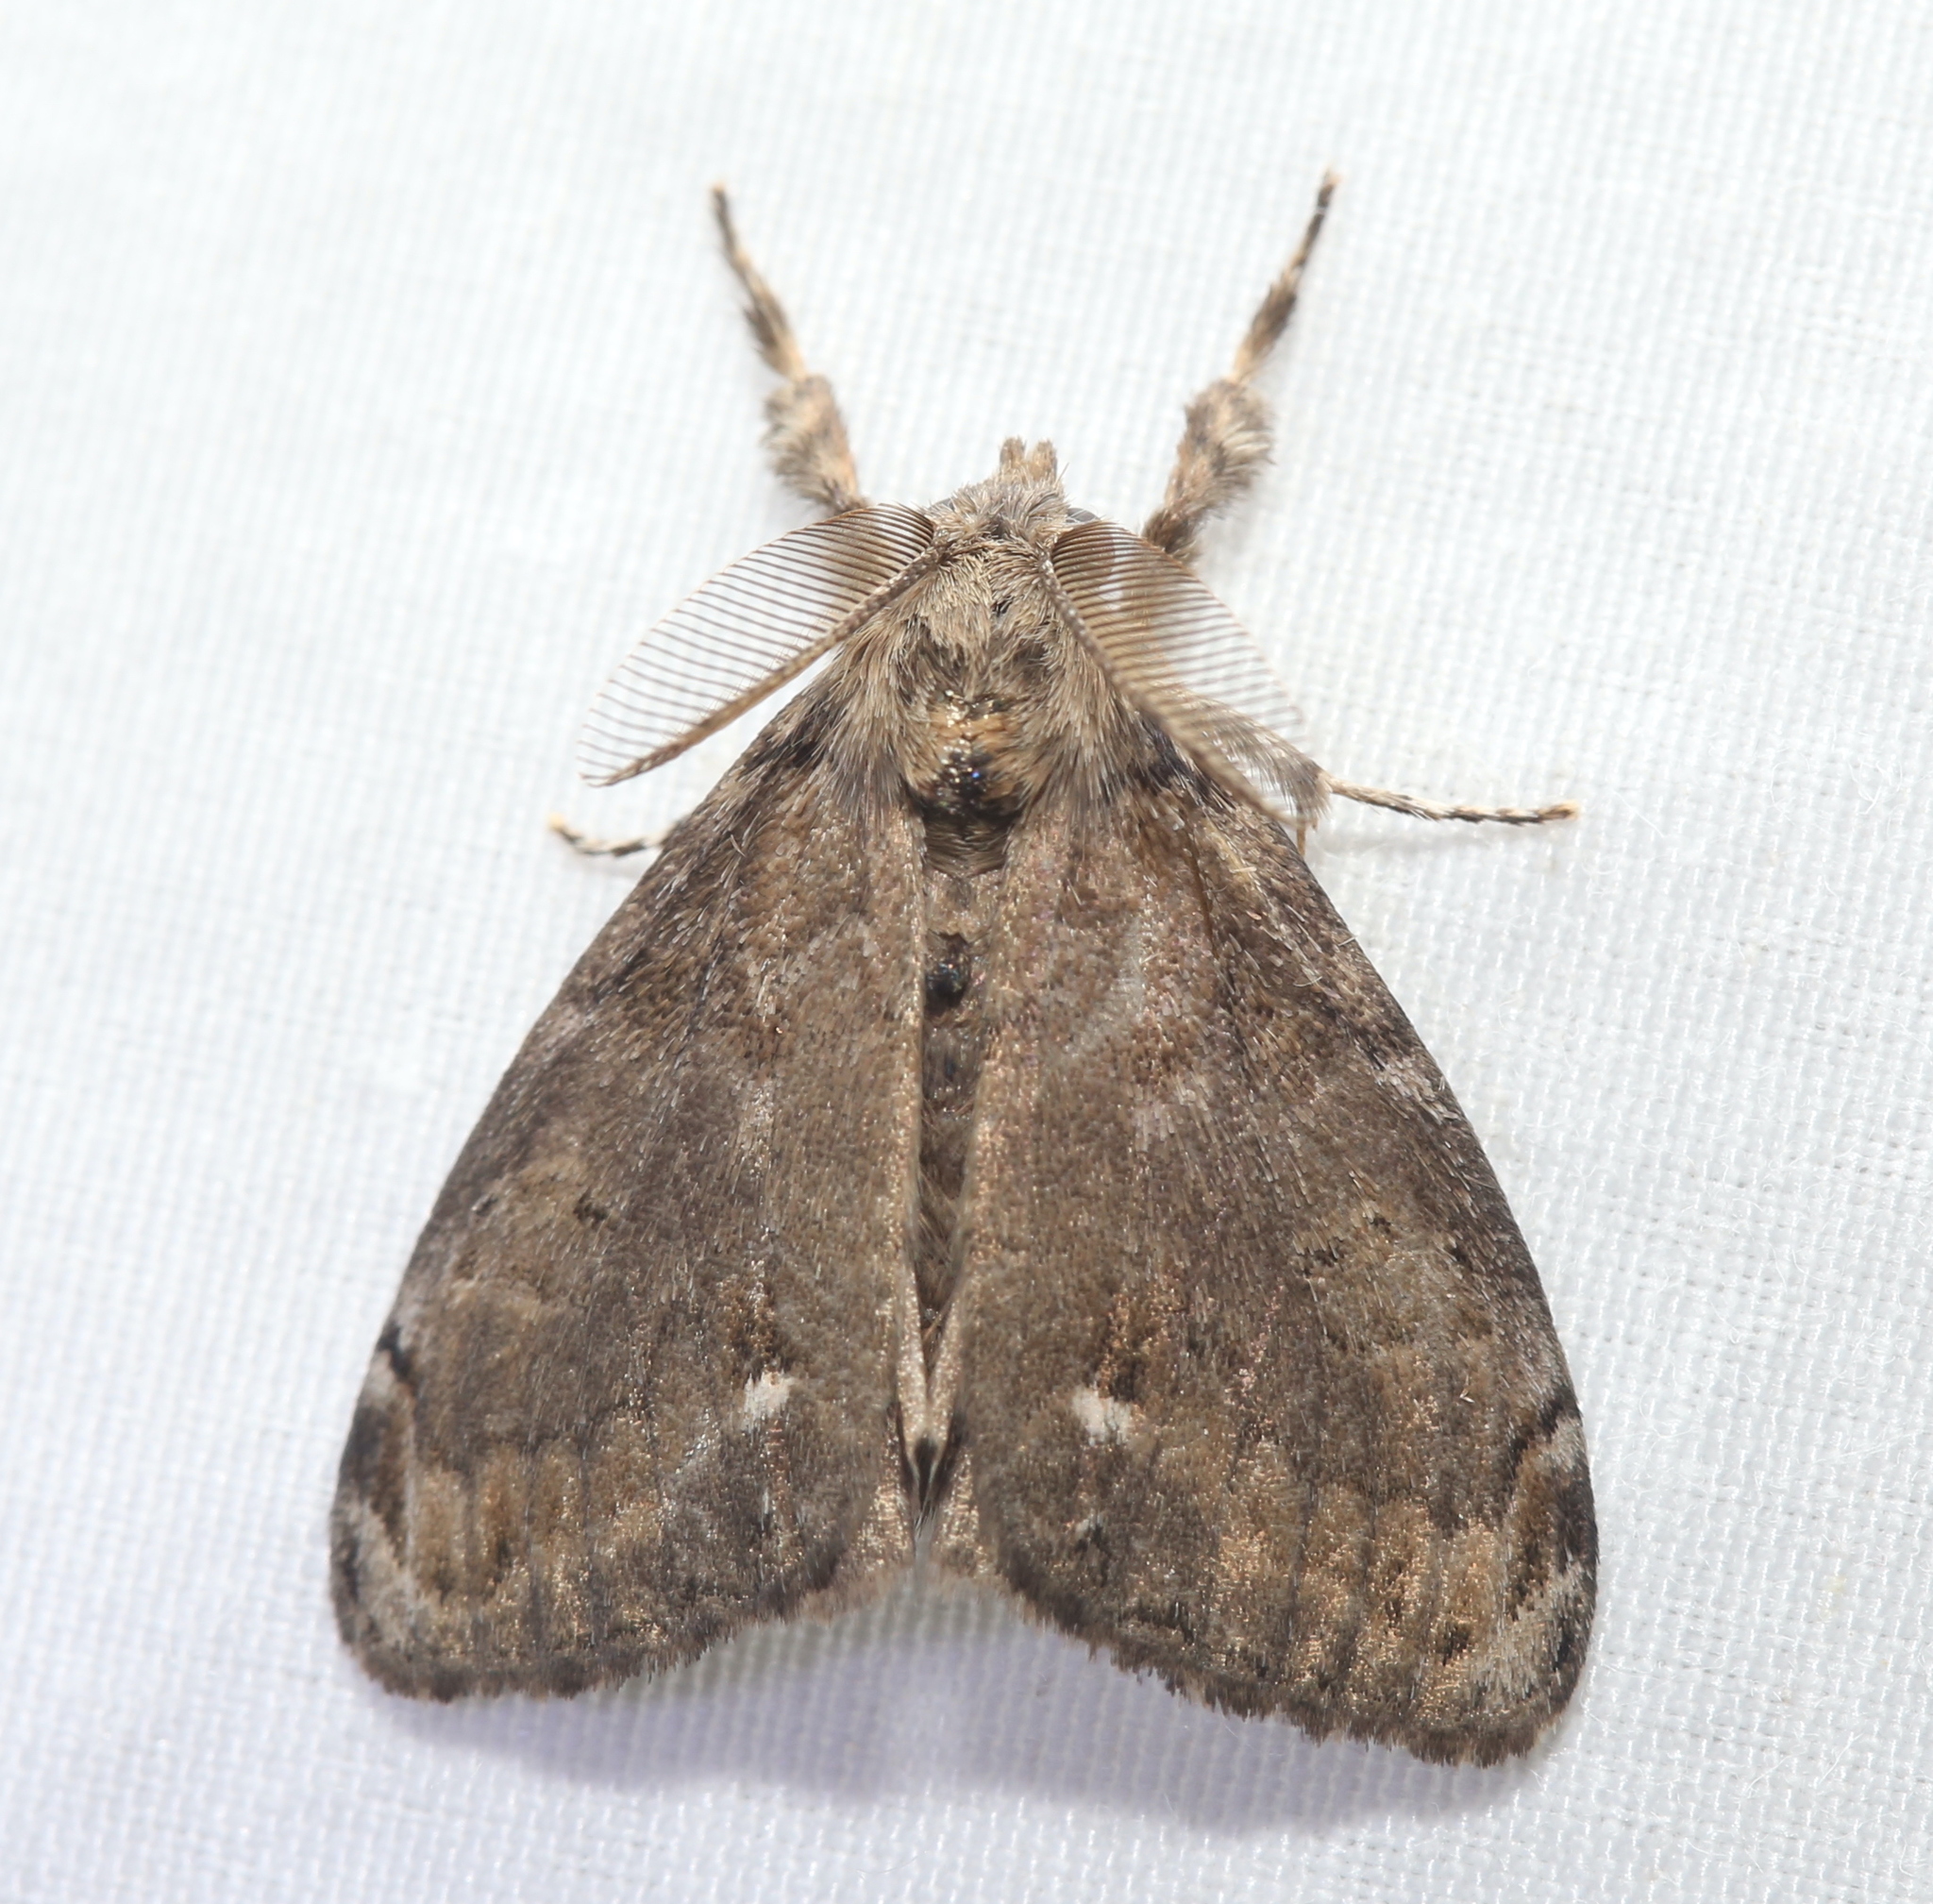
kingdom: Animalia
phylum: Arthropoda
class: Insecta
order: Lepidoptera
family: Erebidae
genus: Orgyia
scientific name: Orgyia leucostigma
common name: White-marked tussock moth
